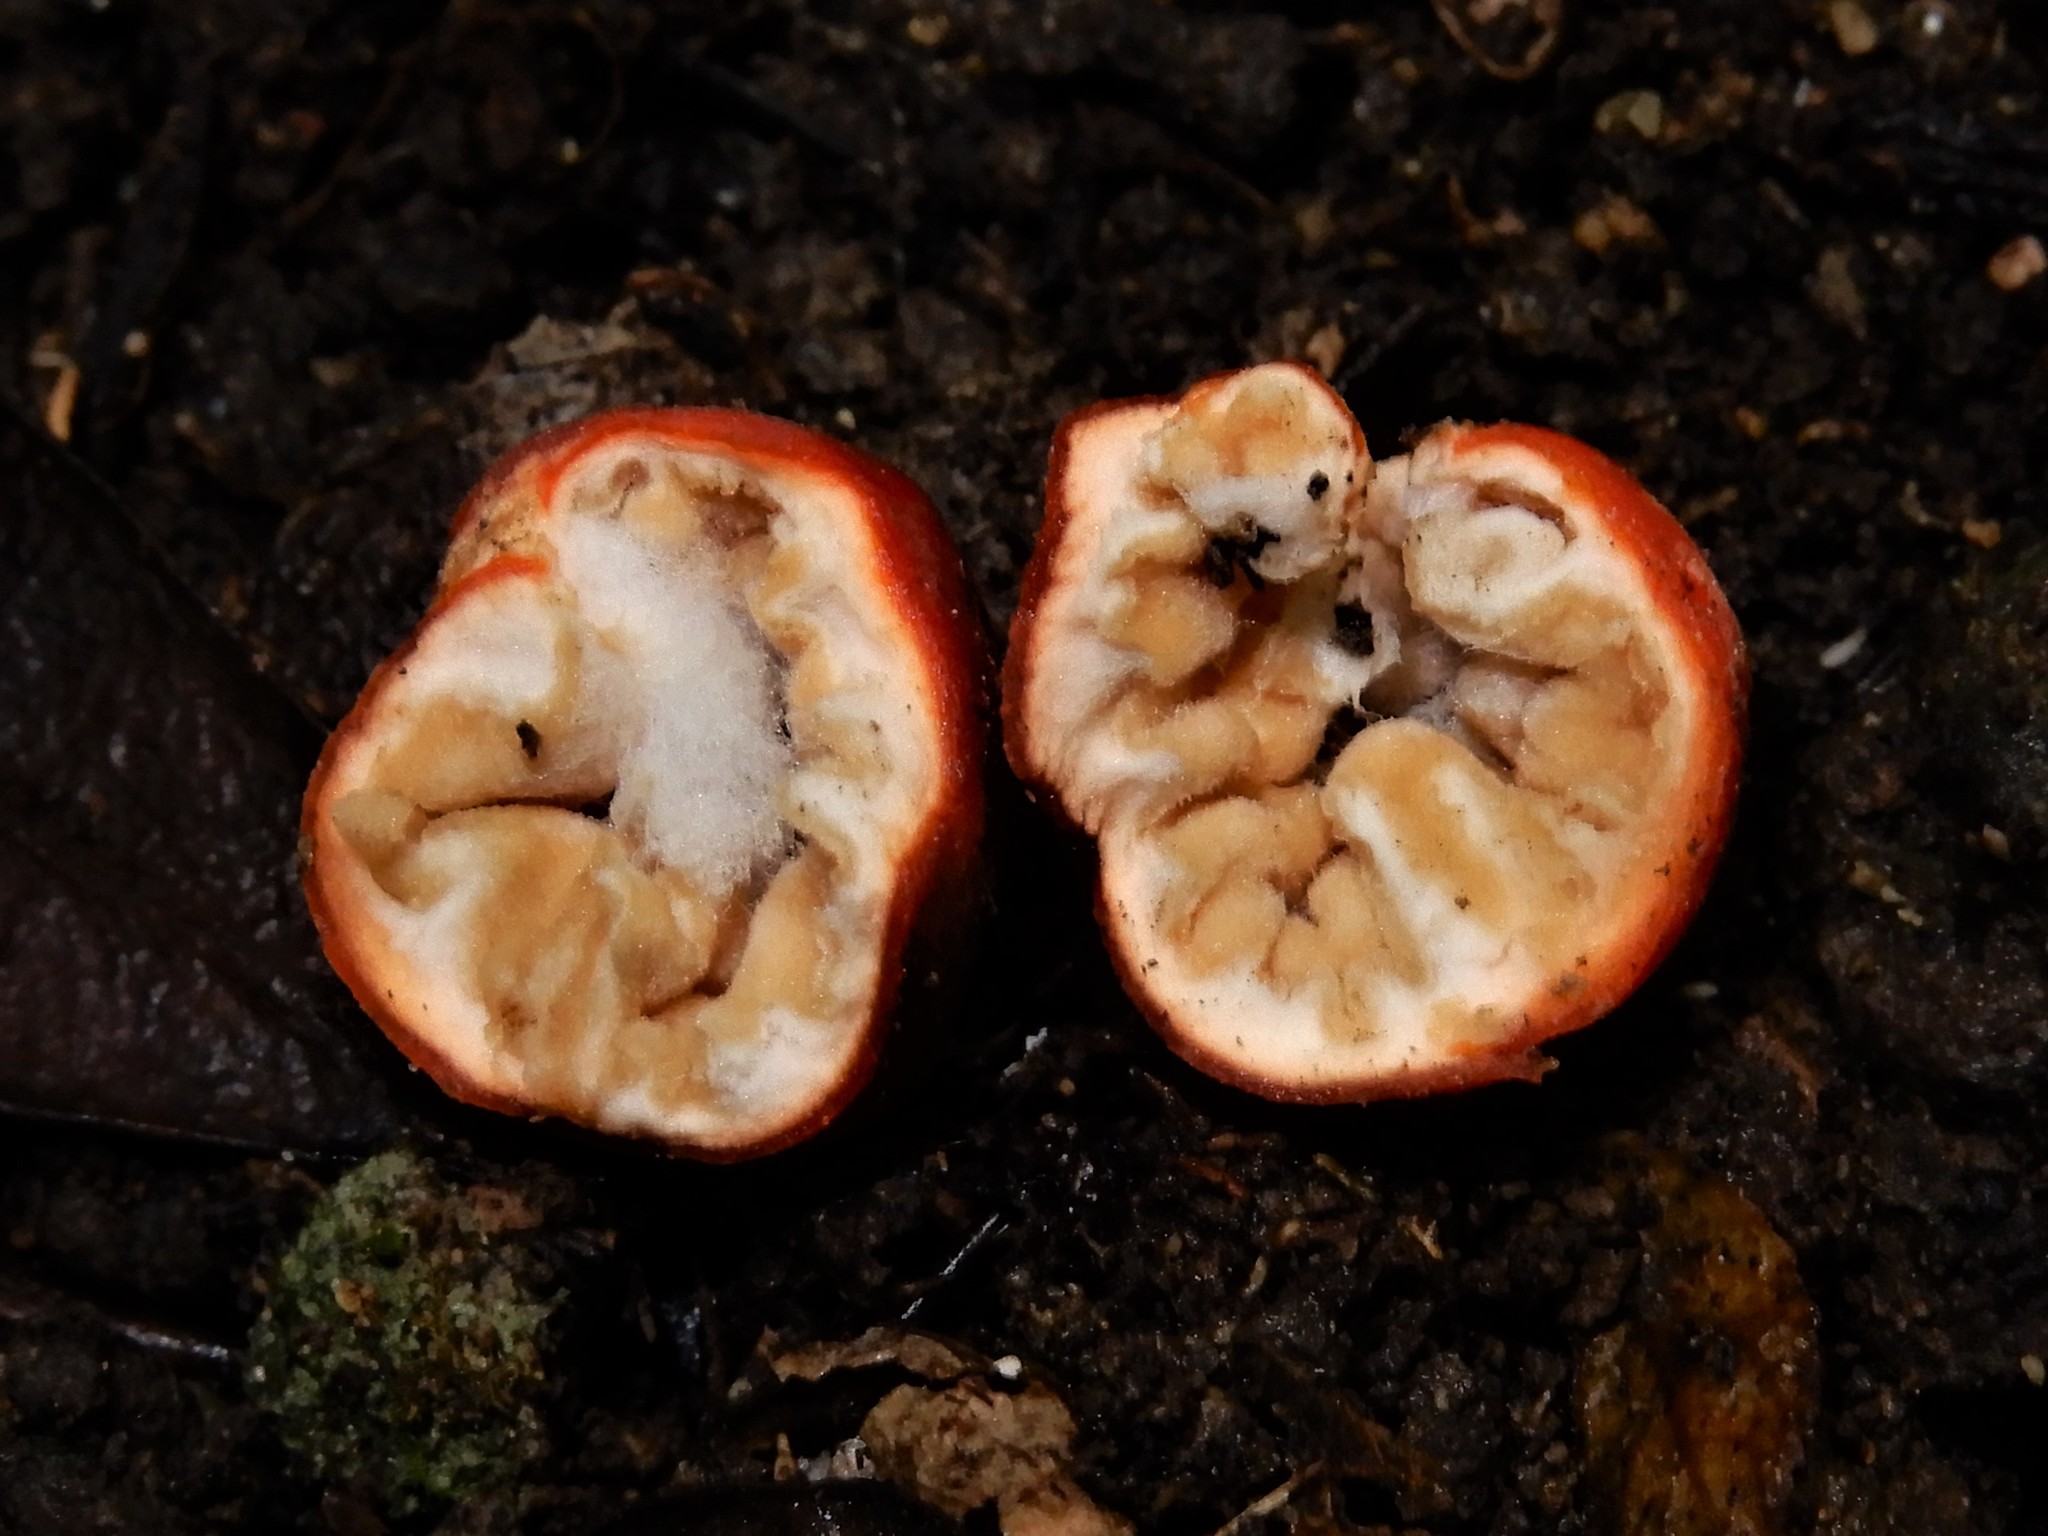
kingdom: Fungi
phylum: Ascomycota
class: Pezizomycetes
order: Pezizales
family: Pyronemataceae
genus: Paurocotylis
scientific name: Paurocotylis pila
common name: Scarlet berry truffle
